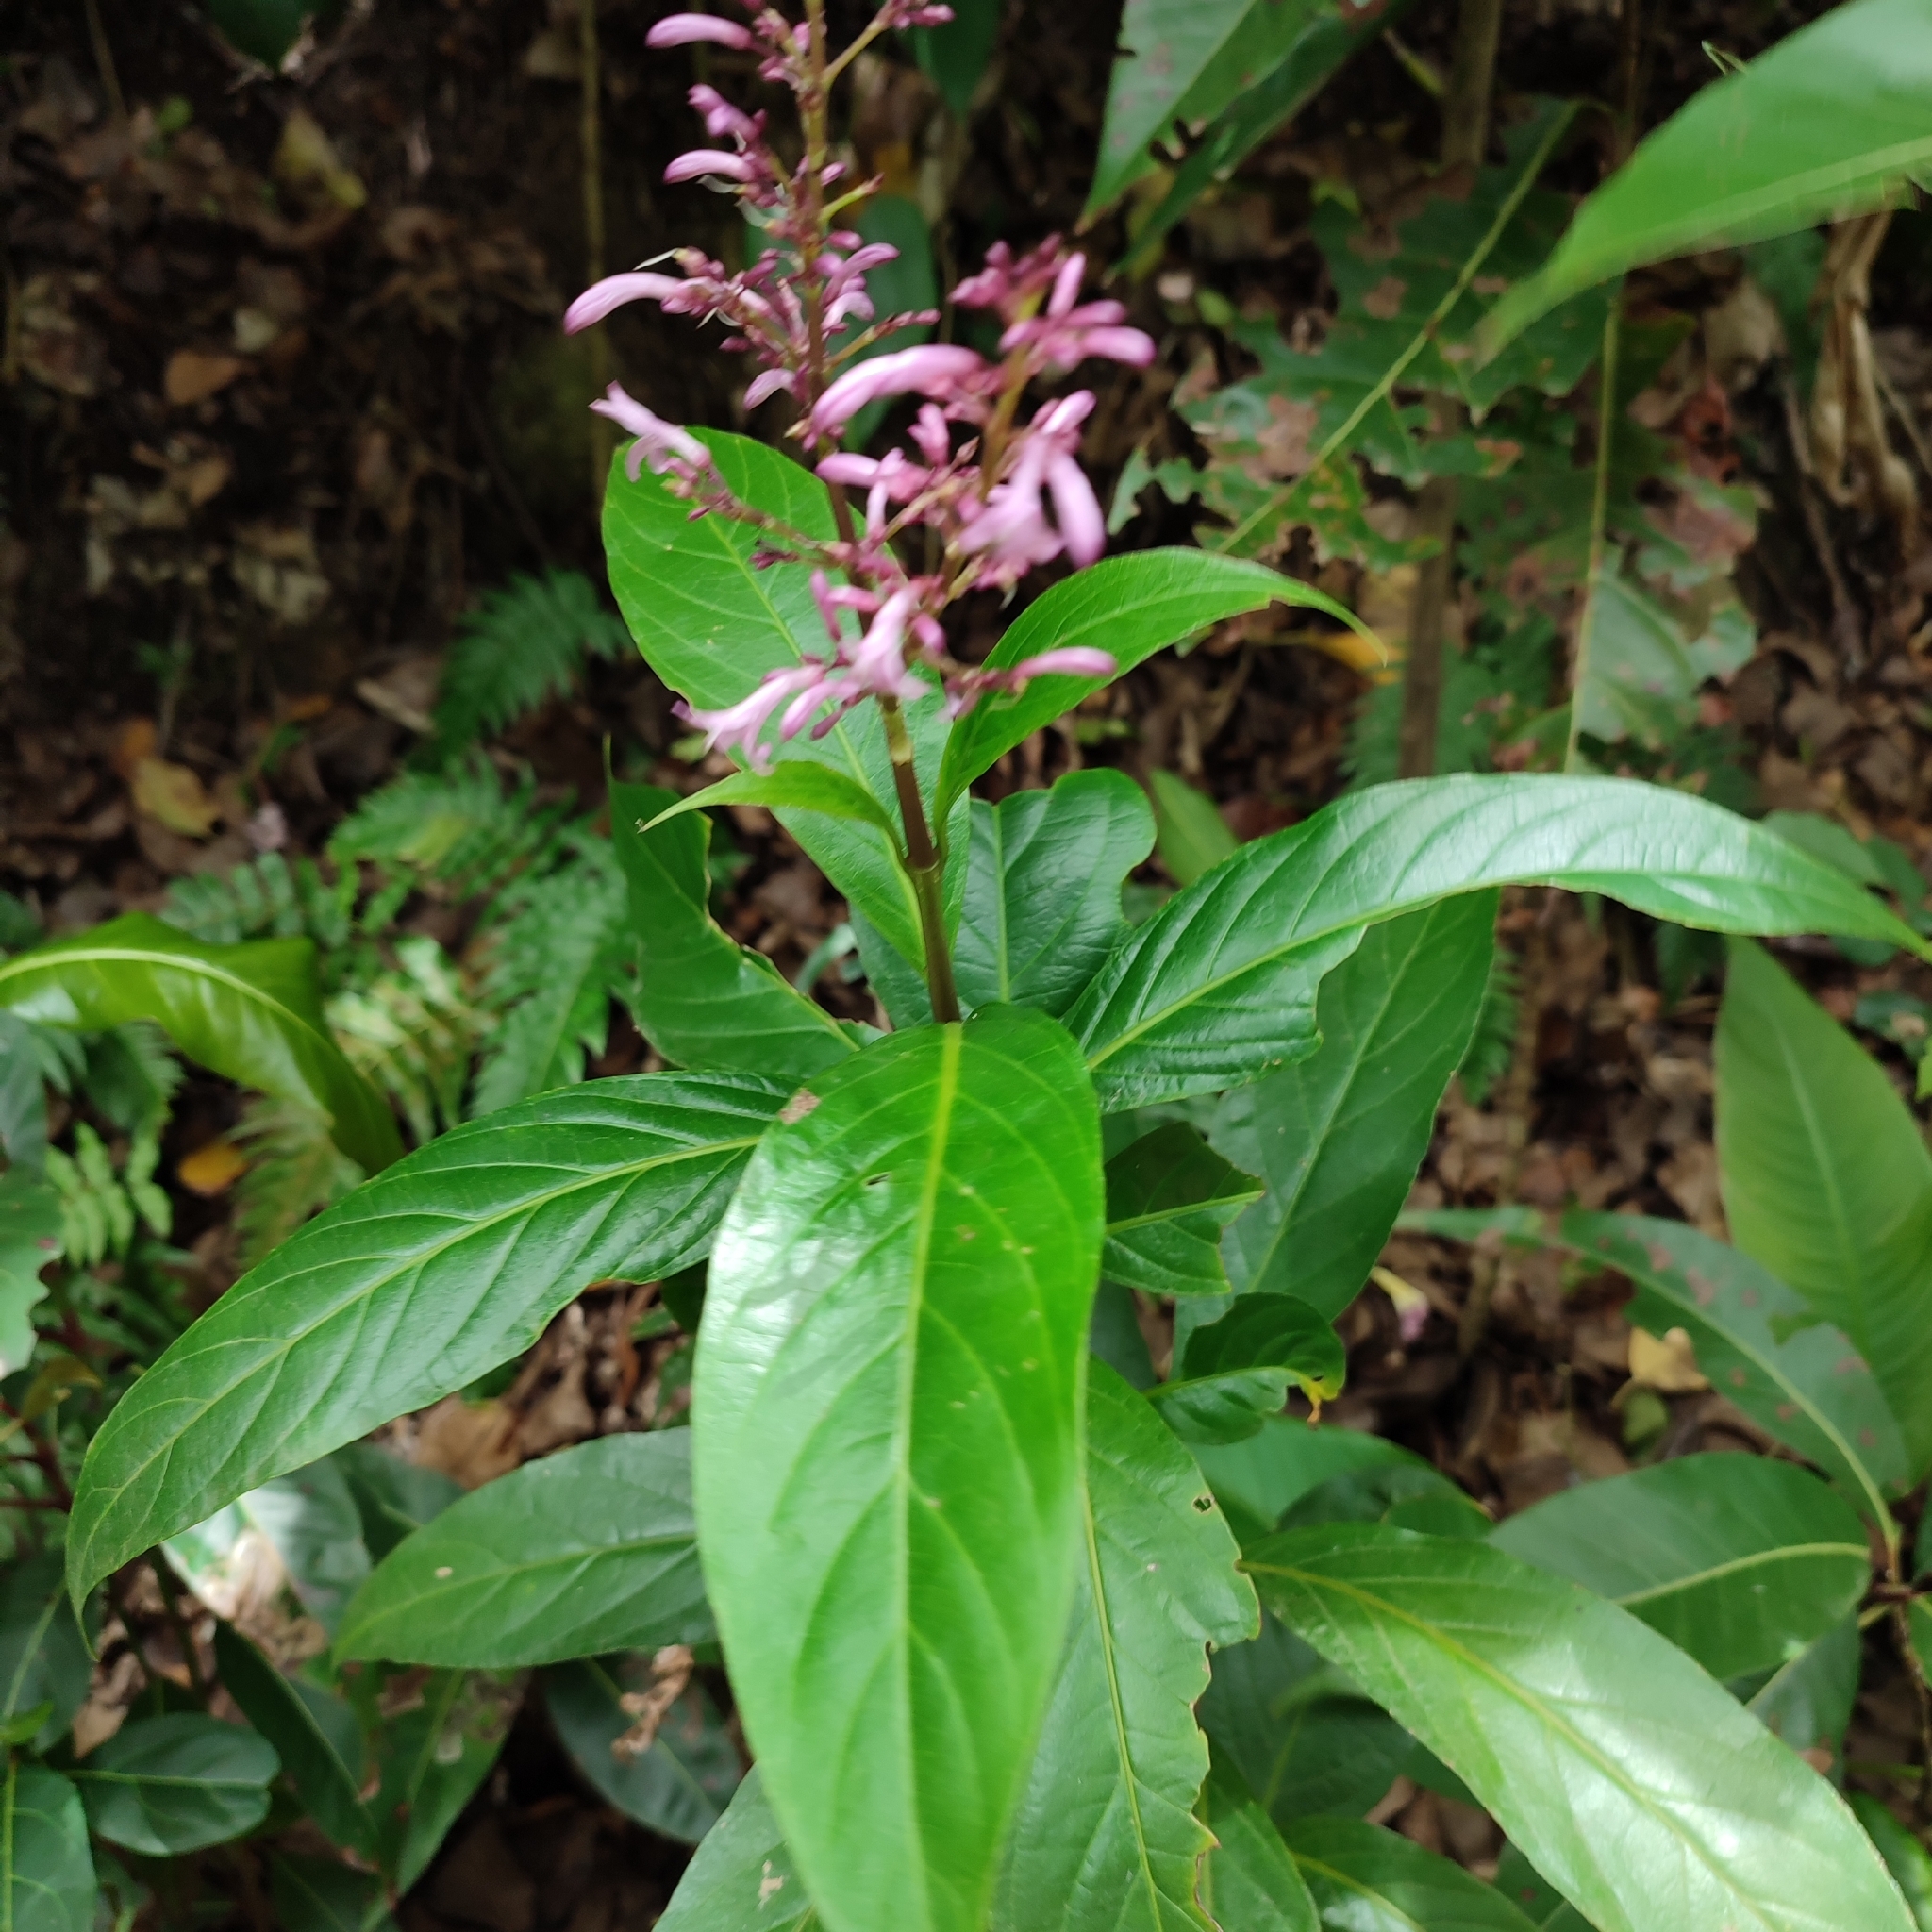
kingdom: Plantae
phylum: Tracheophyta
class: Magnoliopsida
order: Lamiales
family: Acanthaceae
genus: Odontonema
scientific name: Odontonema nitidum
